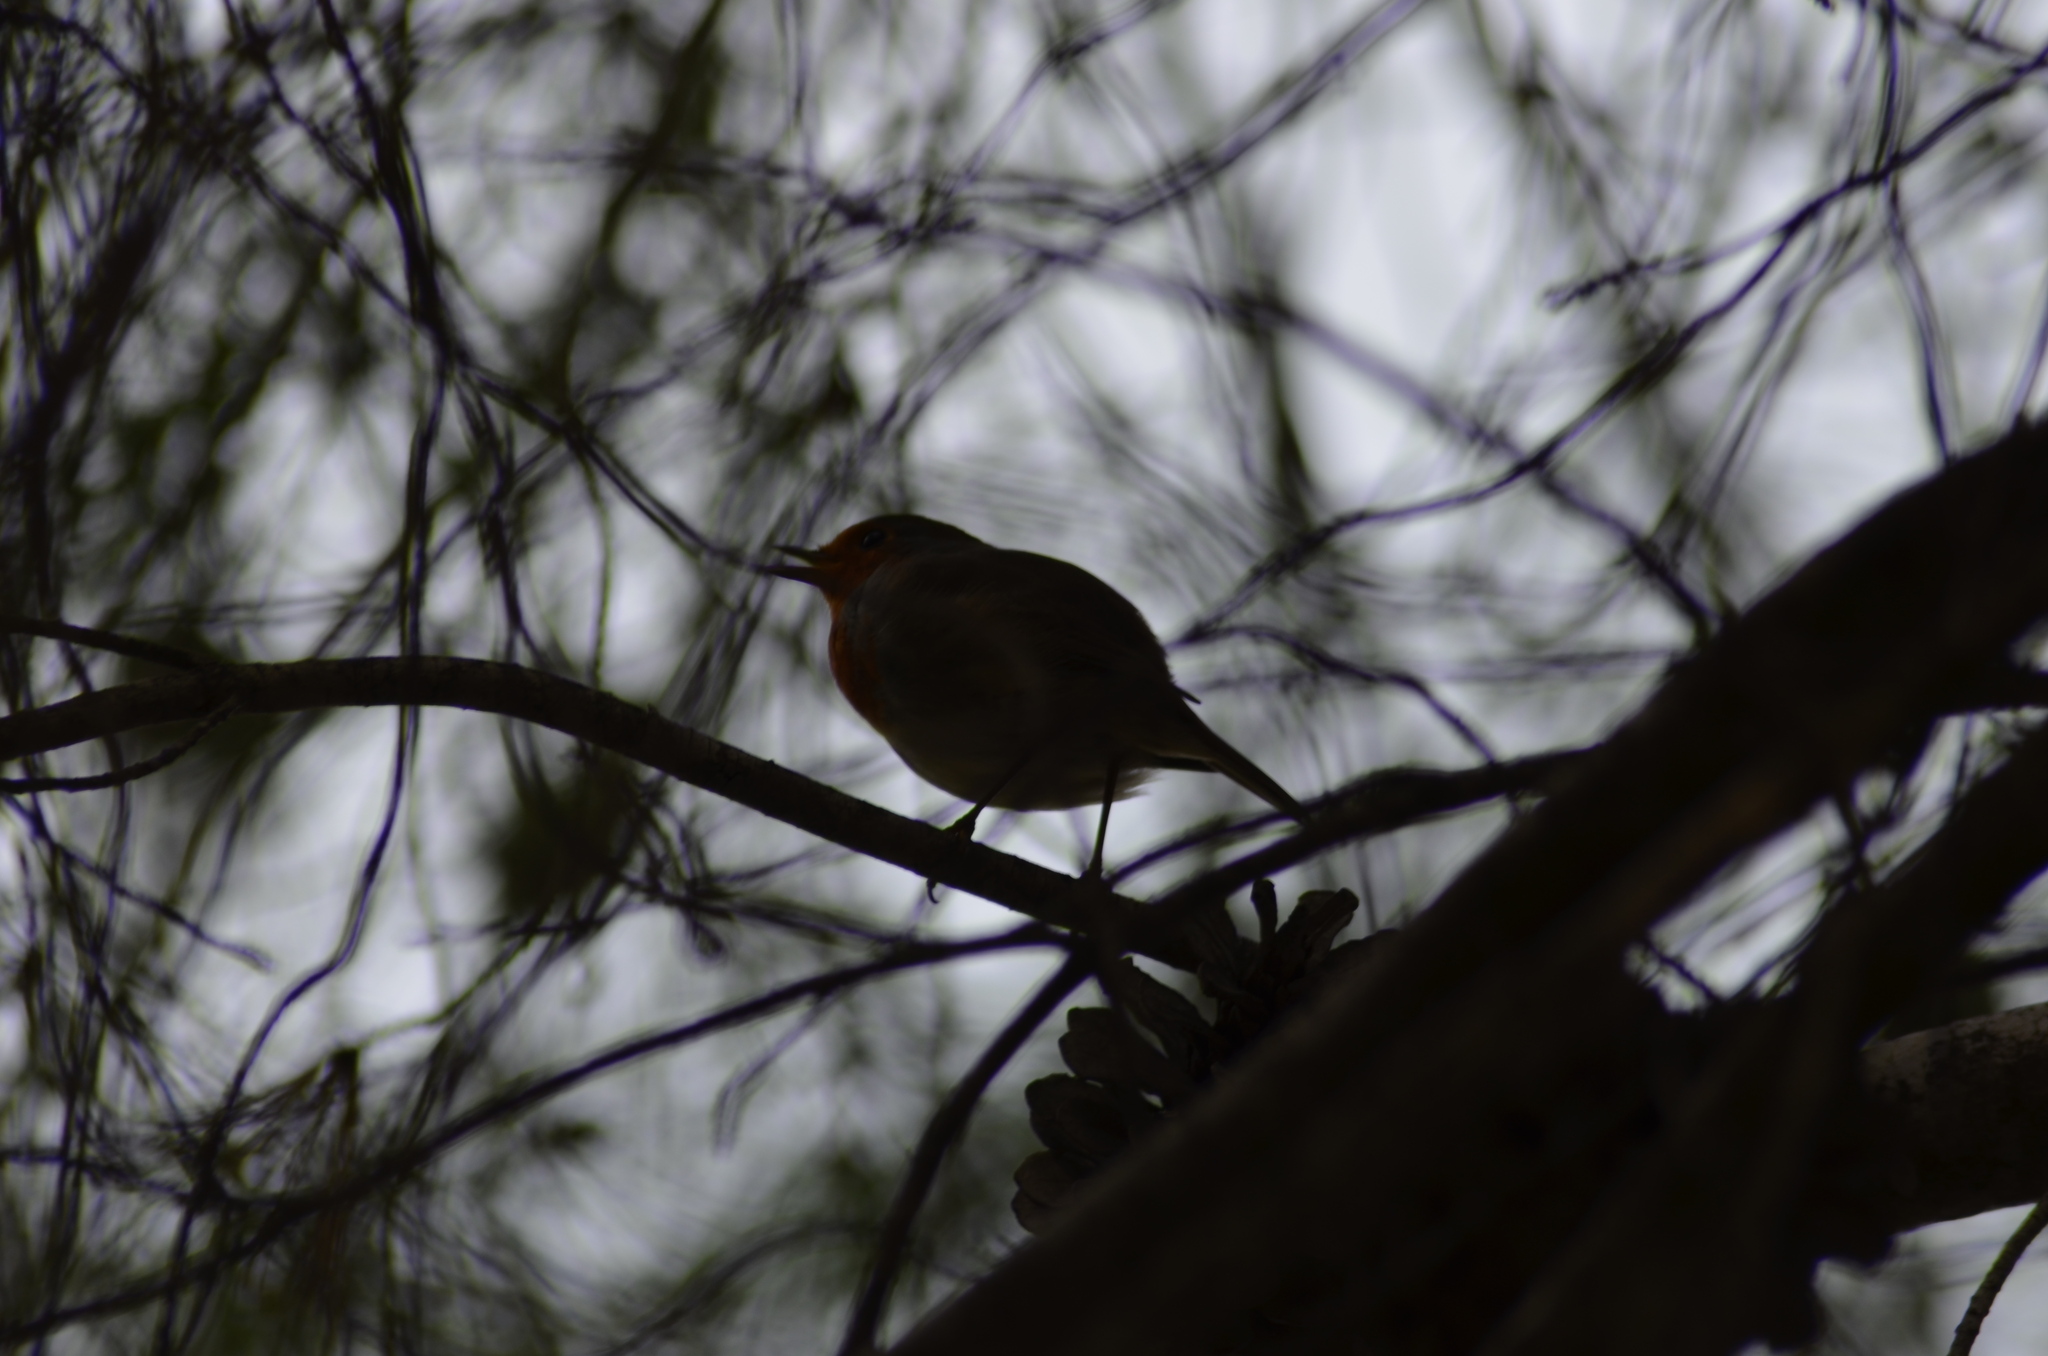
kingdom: Animalia
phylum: Chordata
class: Aves
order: Passeriformes
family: Muscicapidae
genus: Erithacus
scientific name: Erithacus rubecula
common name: European robin
